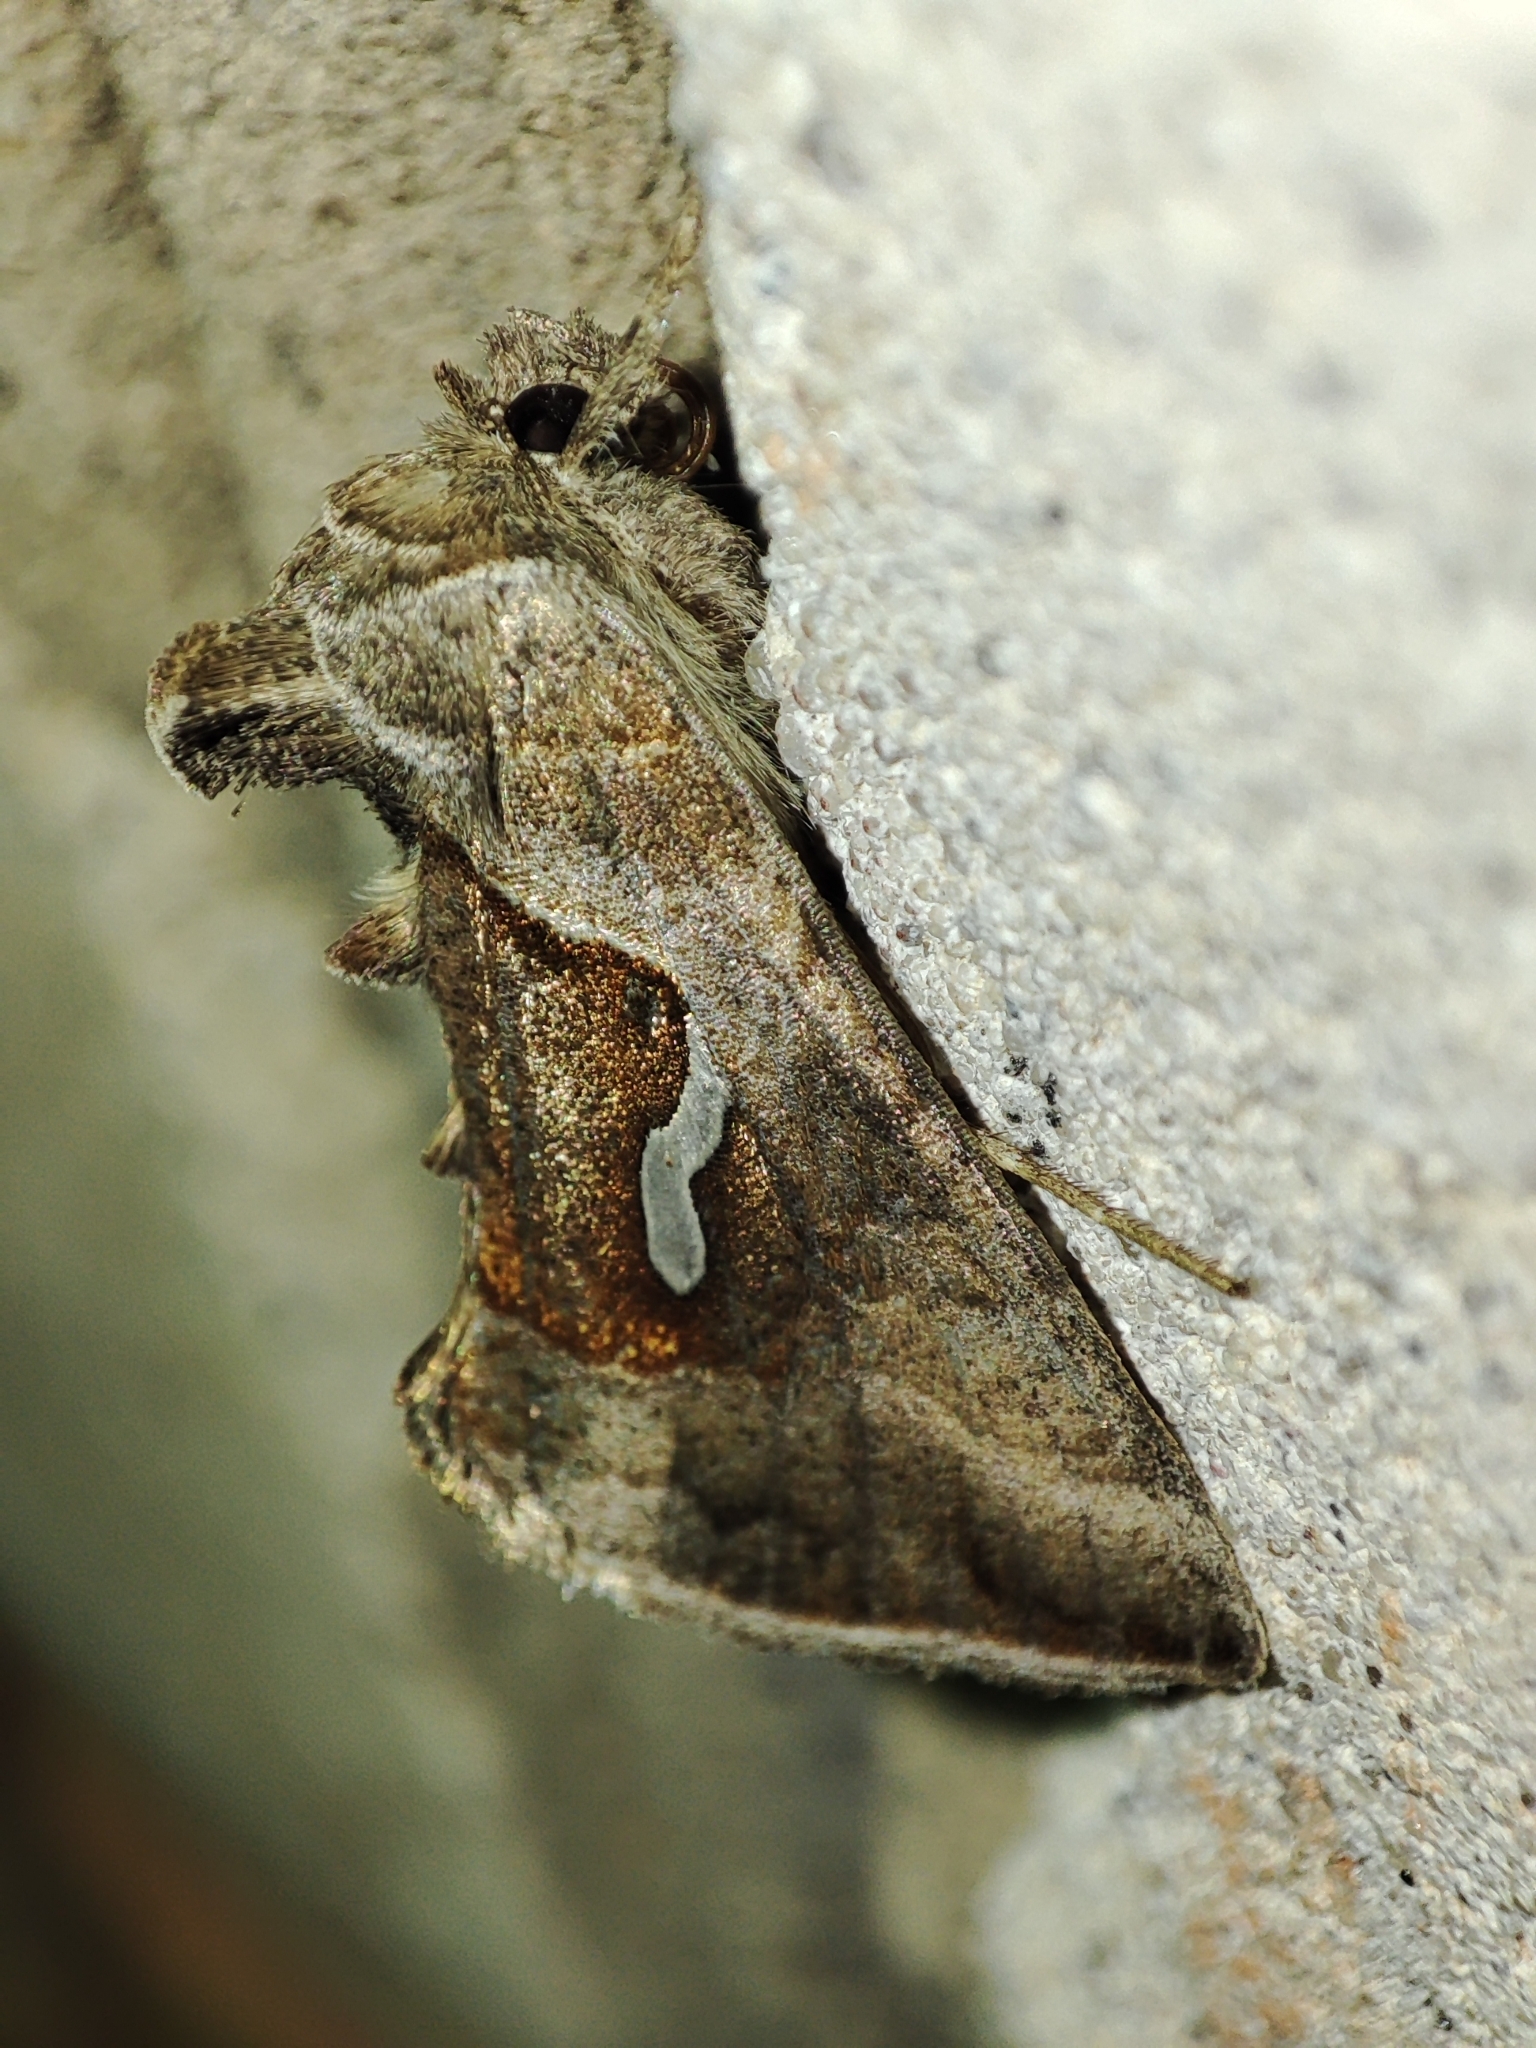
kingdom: Animalia
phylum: Arthropoda
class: Insecta
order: Lepidoptera
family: Noctuidae
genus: Macdunnoughia
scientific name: Macdunnoughia confusa
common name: Dewick's plusia
